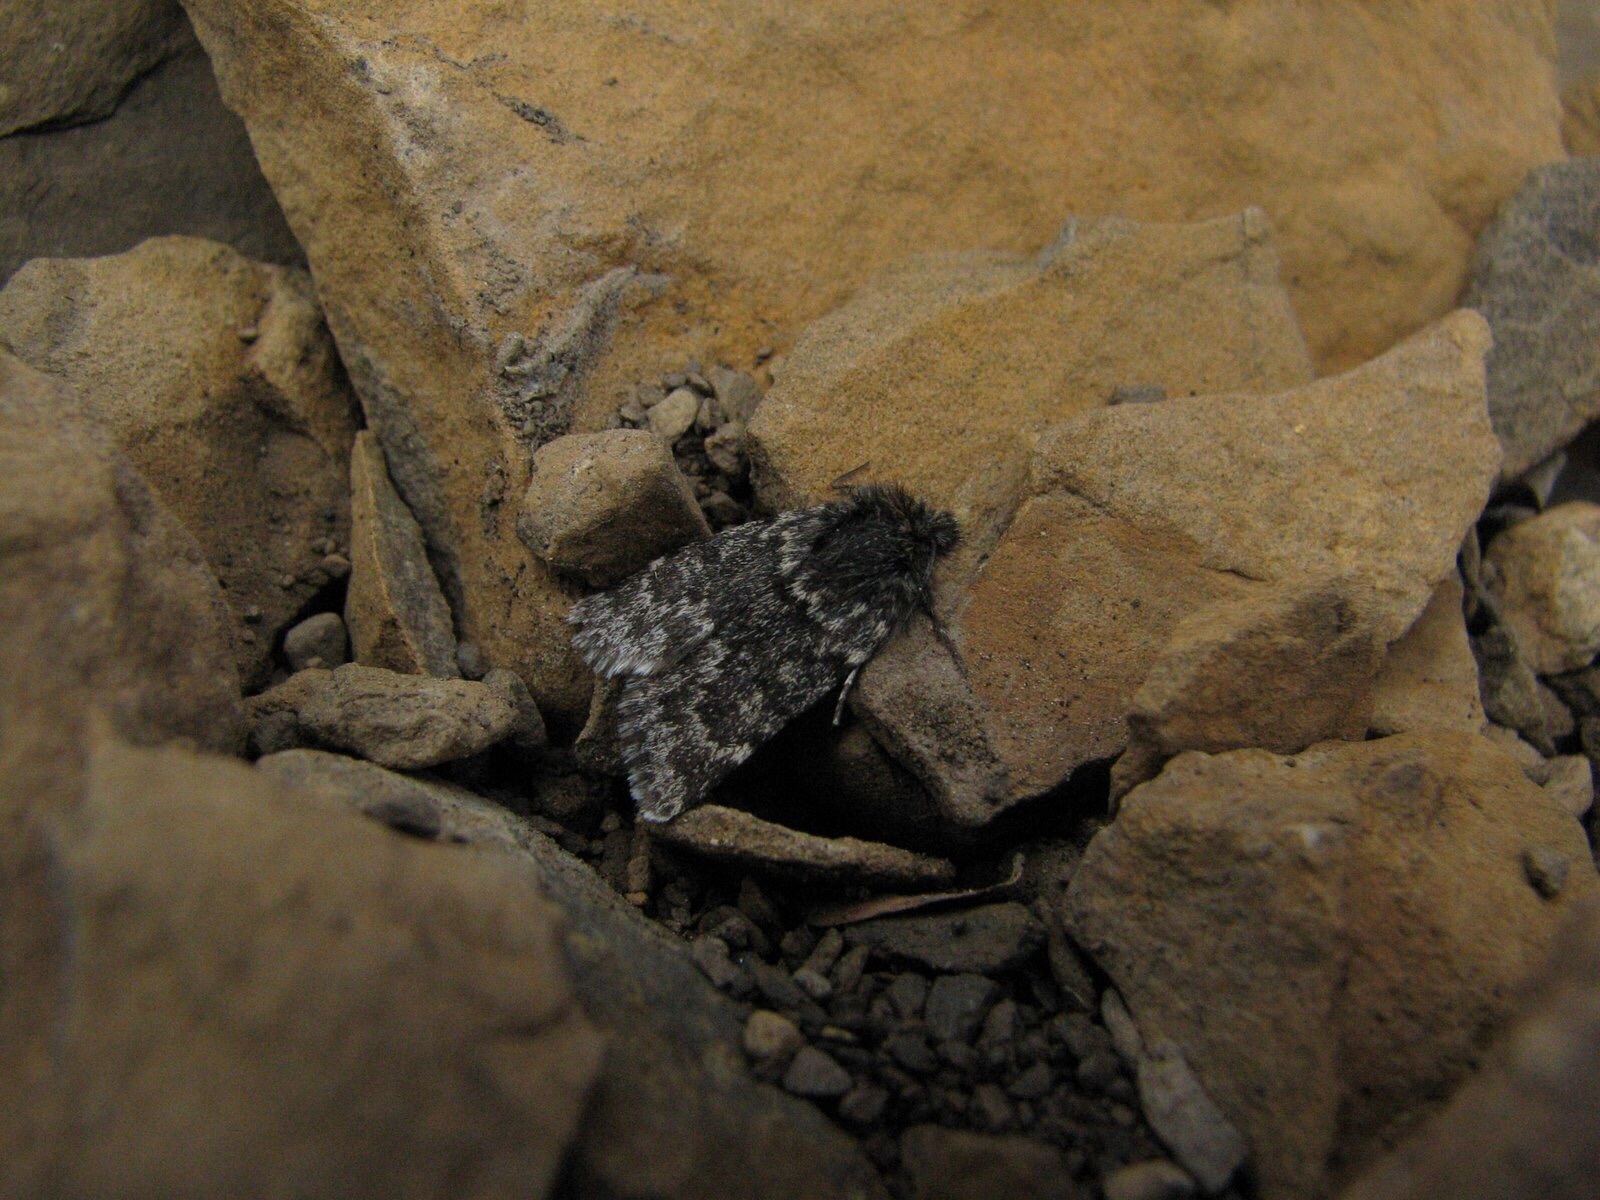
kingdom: Animalia
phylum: Arthropoda
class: Insecta
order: Lepidoptera
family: Noctuidae
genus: Sympistis
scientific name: Sympistis nigrita
